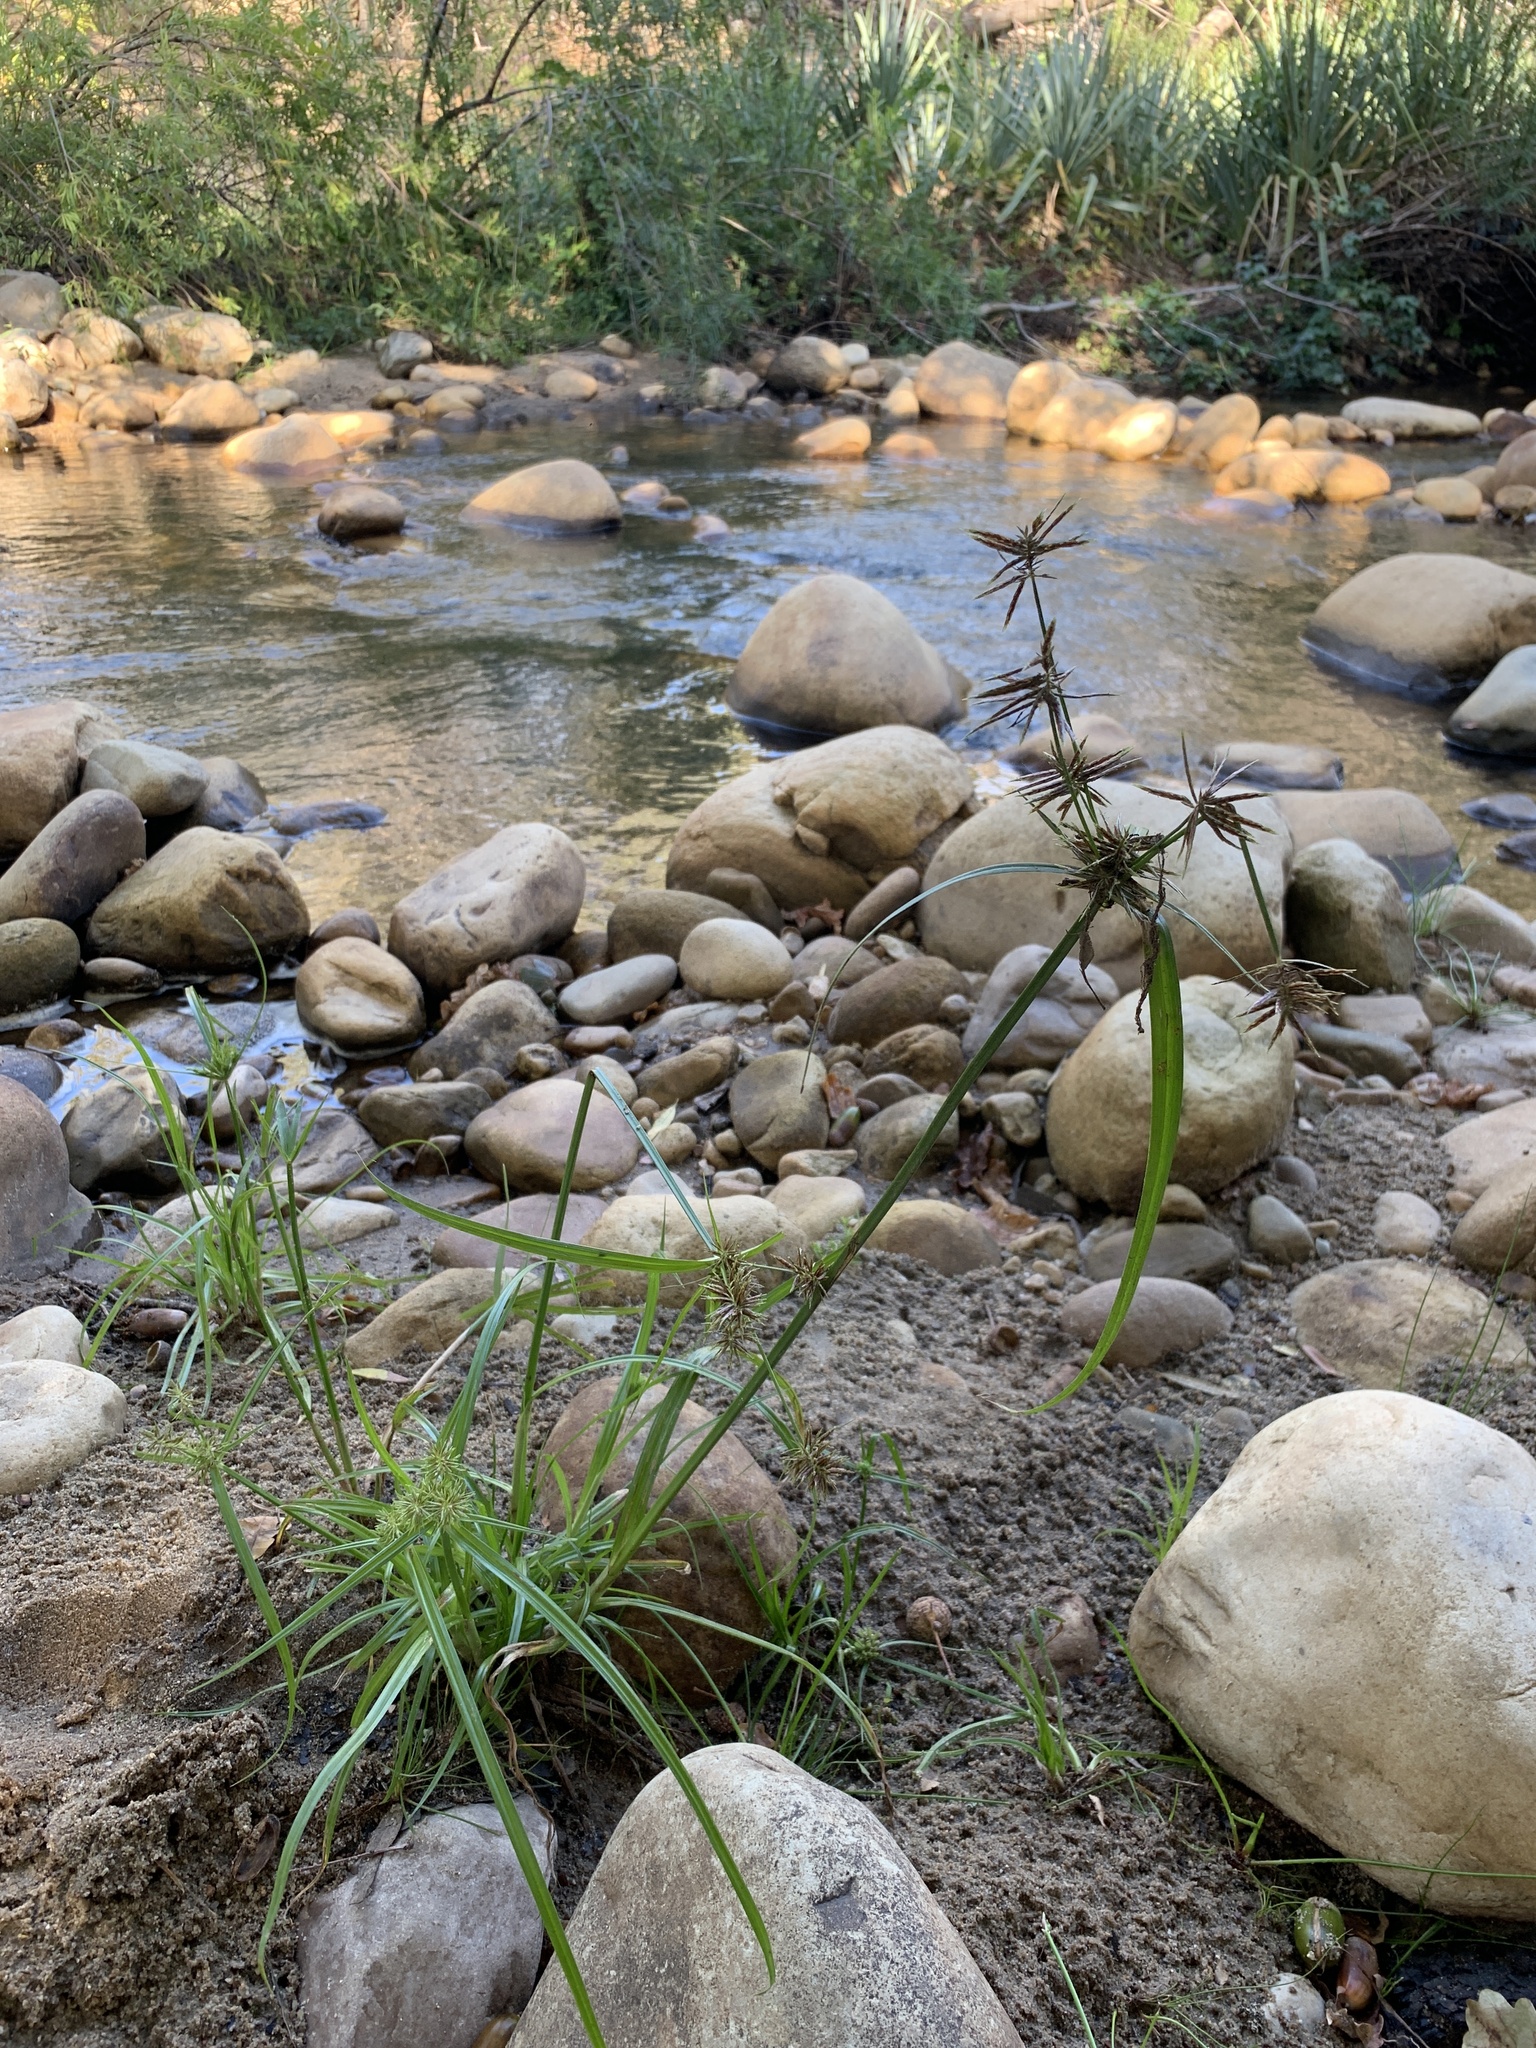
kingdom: Plantae
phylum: Tracheophyta
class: Liliopsida
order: Poales
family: Cyperaceae
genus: Cyperus
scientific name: Cyperus congestus
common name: Dense flat sedge
